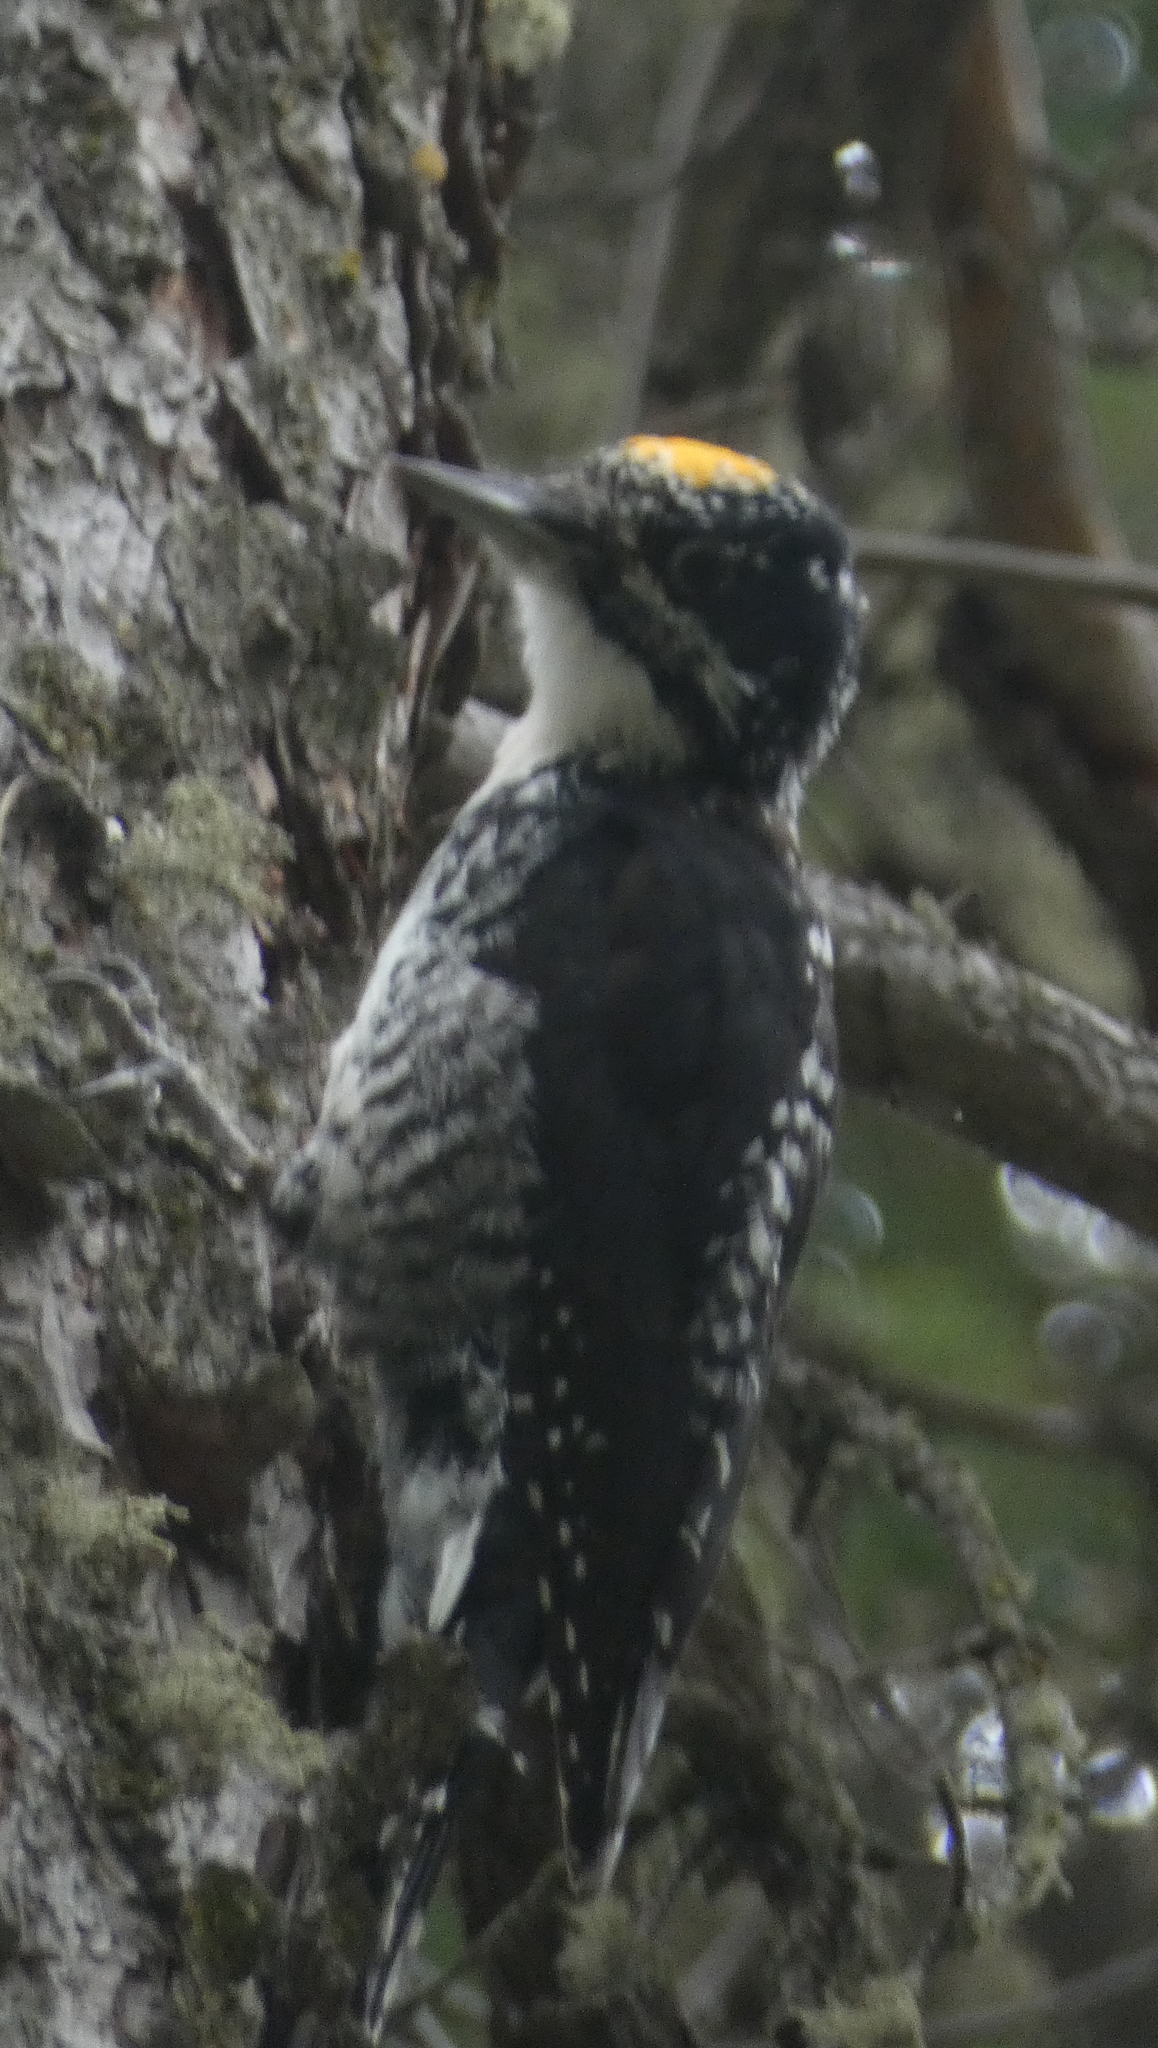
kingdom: Animalia
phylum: Chordata
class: Aves
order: Piciformes
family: Picidae
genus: Picoides
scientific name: Picoides dorsalis
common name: American three-toed woodpecker
